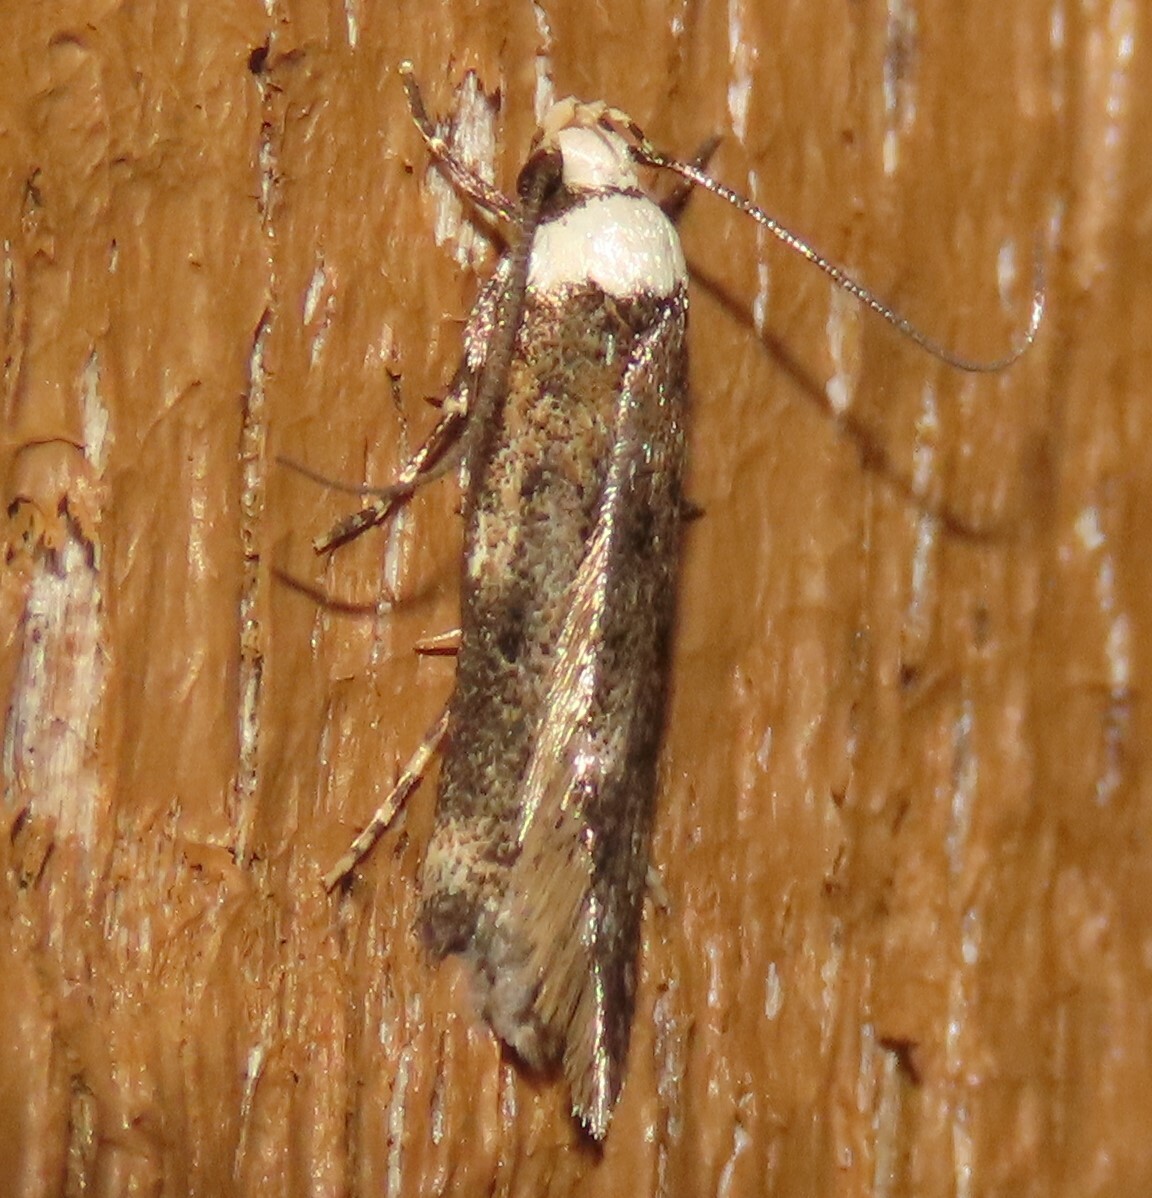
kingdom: Animalia
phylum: Arthropoda
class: Insecta
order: Lepidoptera
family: Oecophoridae
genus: Endrosis
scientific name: Endrosis sarcitrella
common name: White-shouldered house moth
